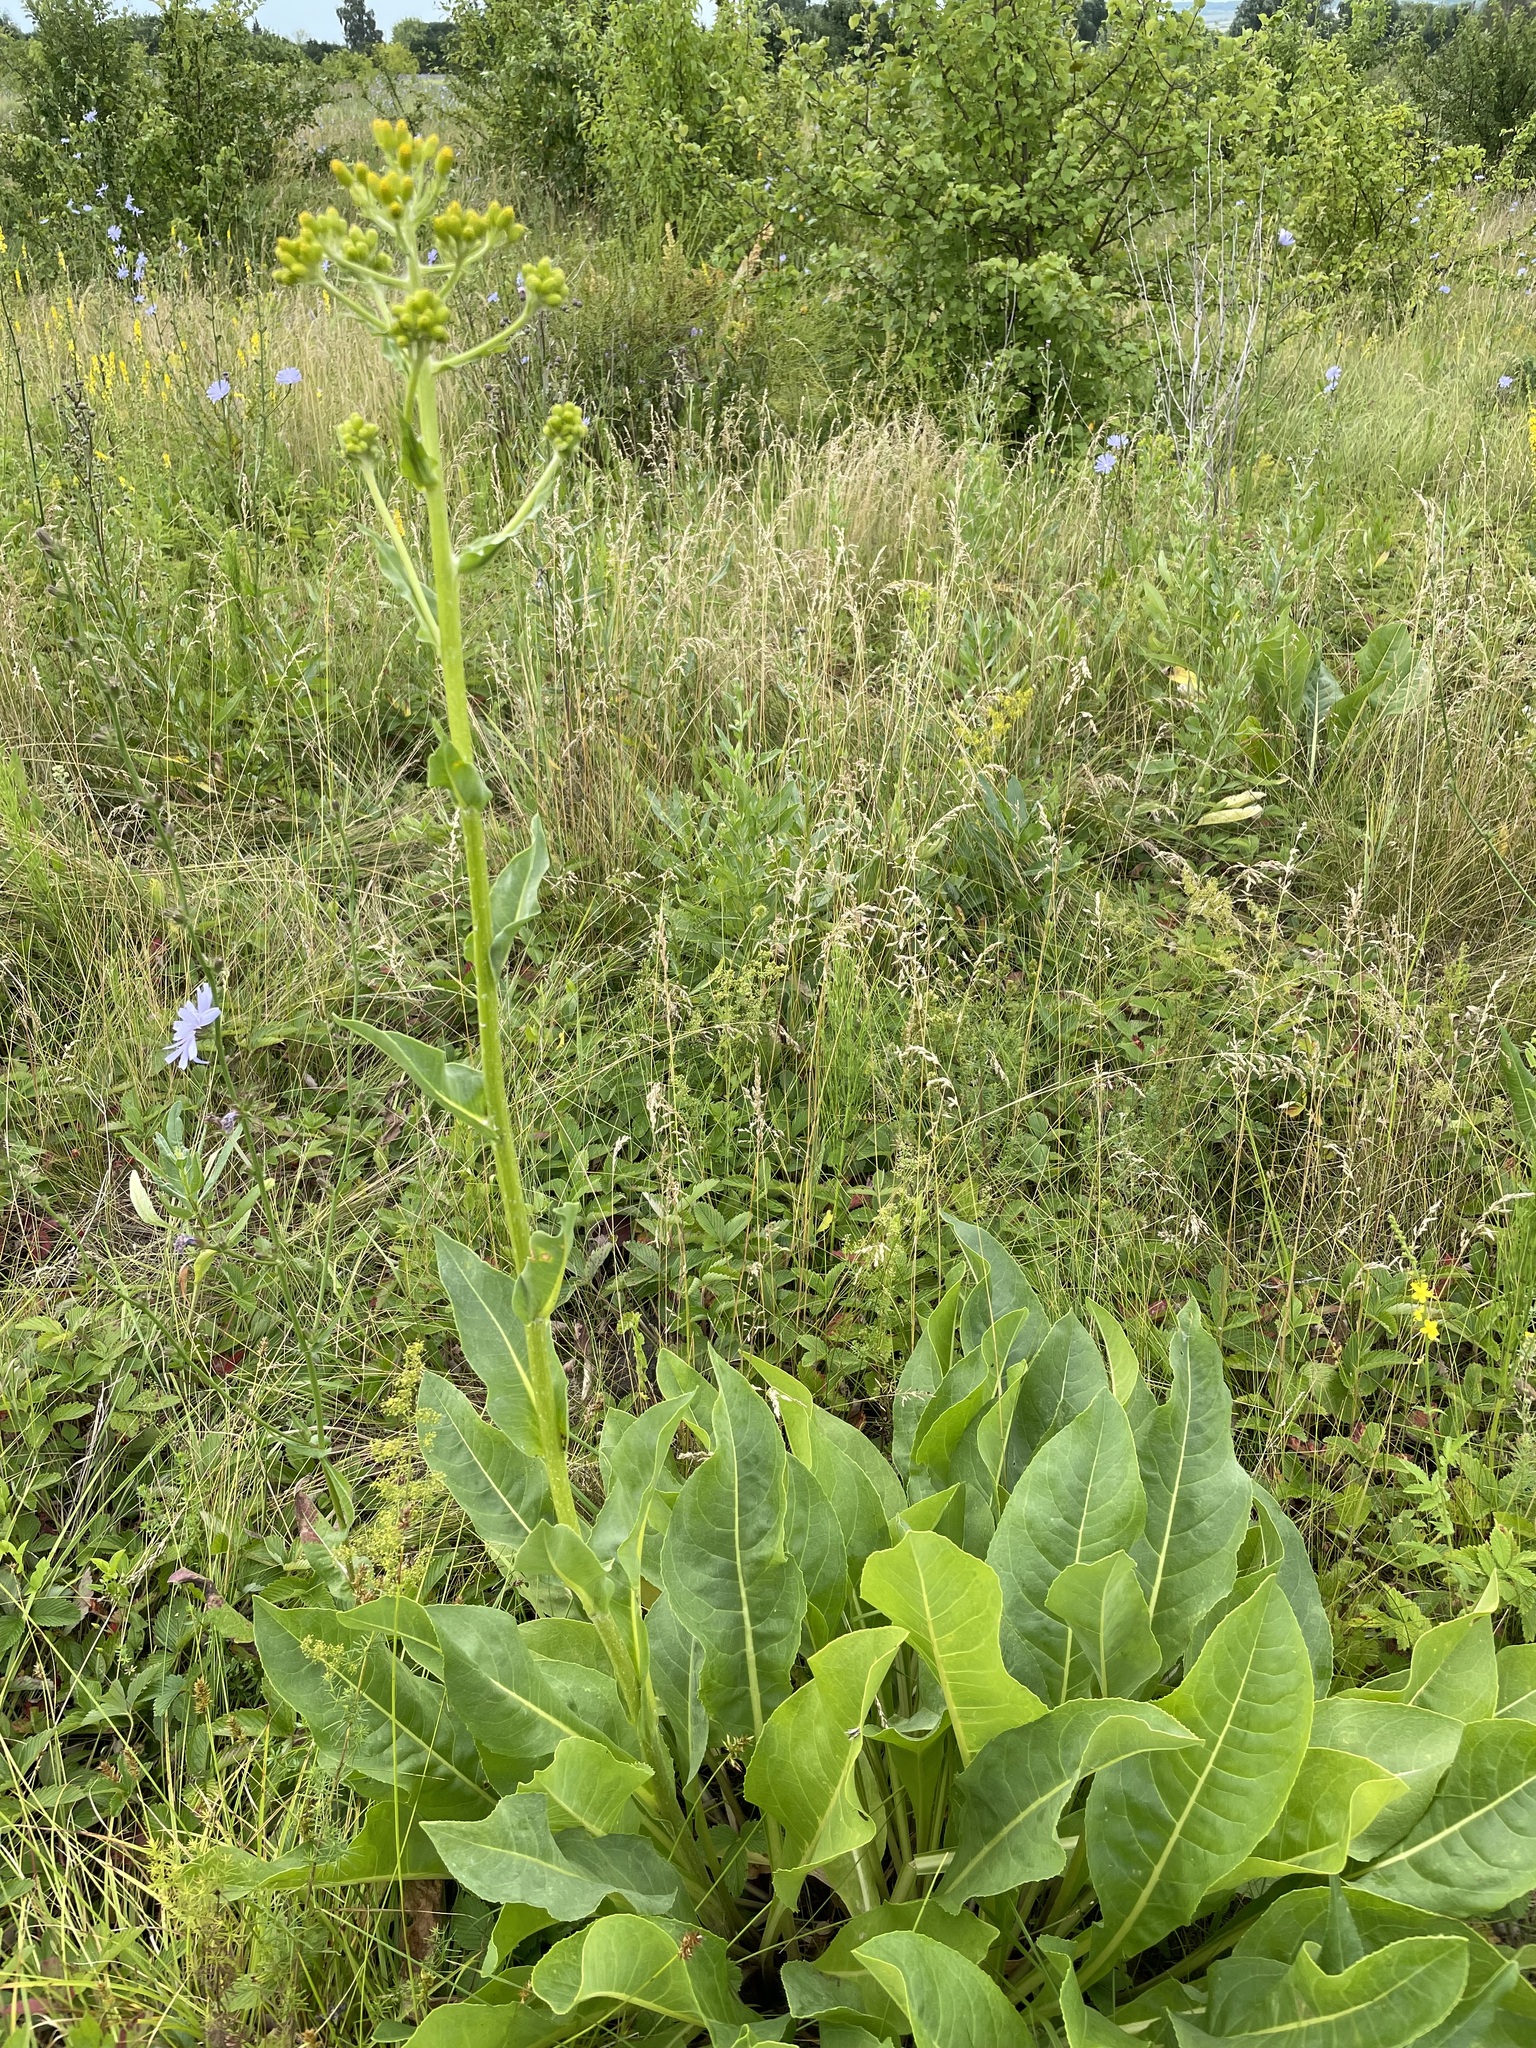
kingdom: Plantae
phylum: Tracheophyta
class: Magnoliopsida
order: Asterales
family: Asteraceae
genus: Senecio
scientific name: Senecio doria
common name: Golden ragwort
